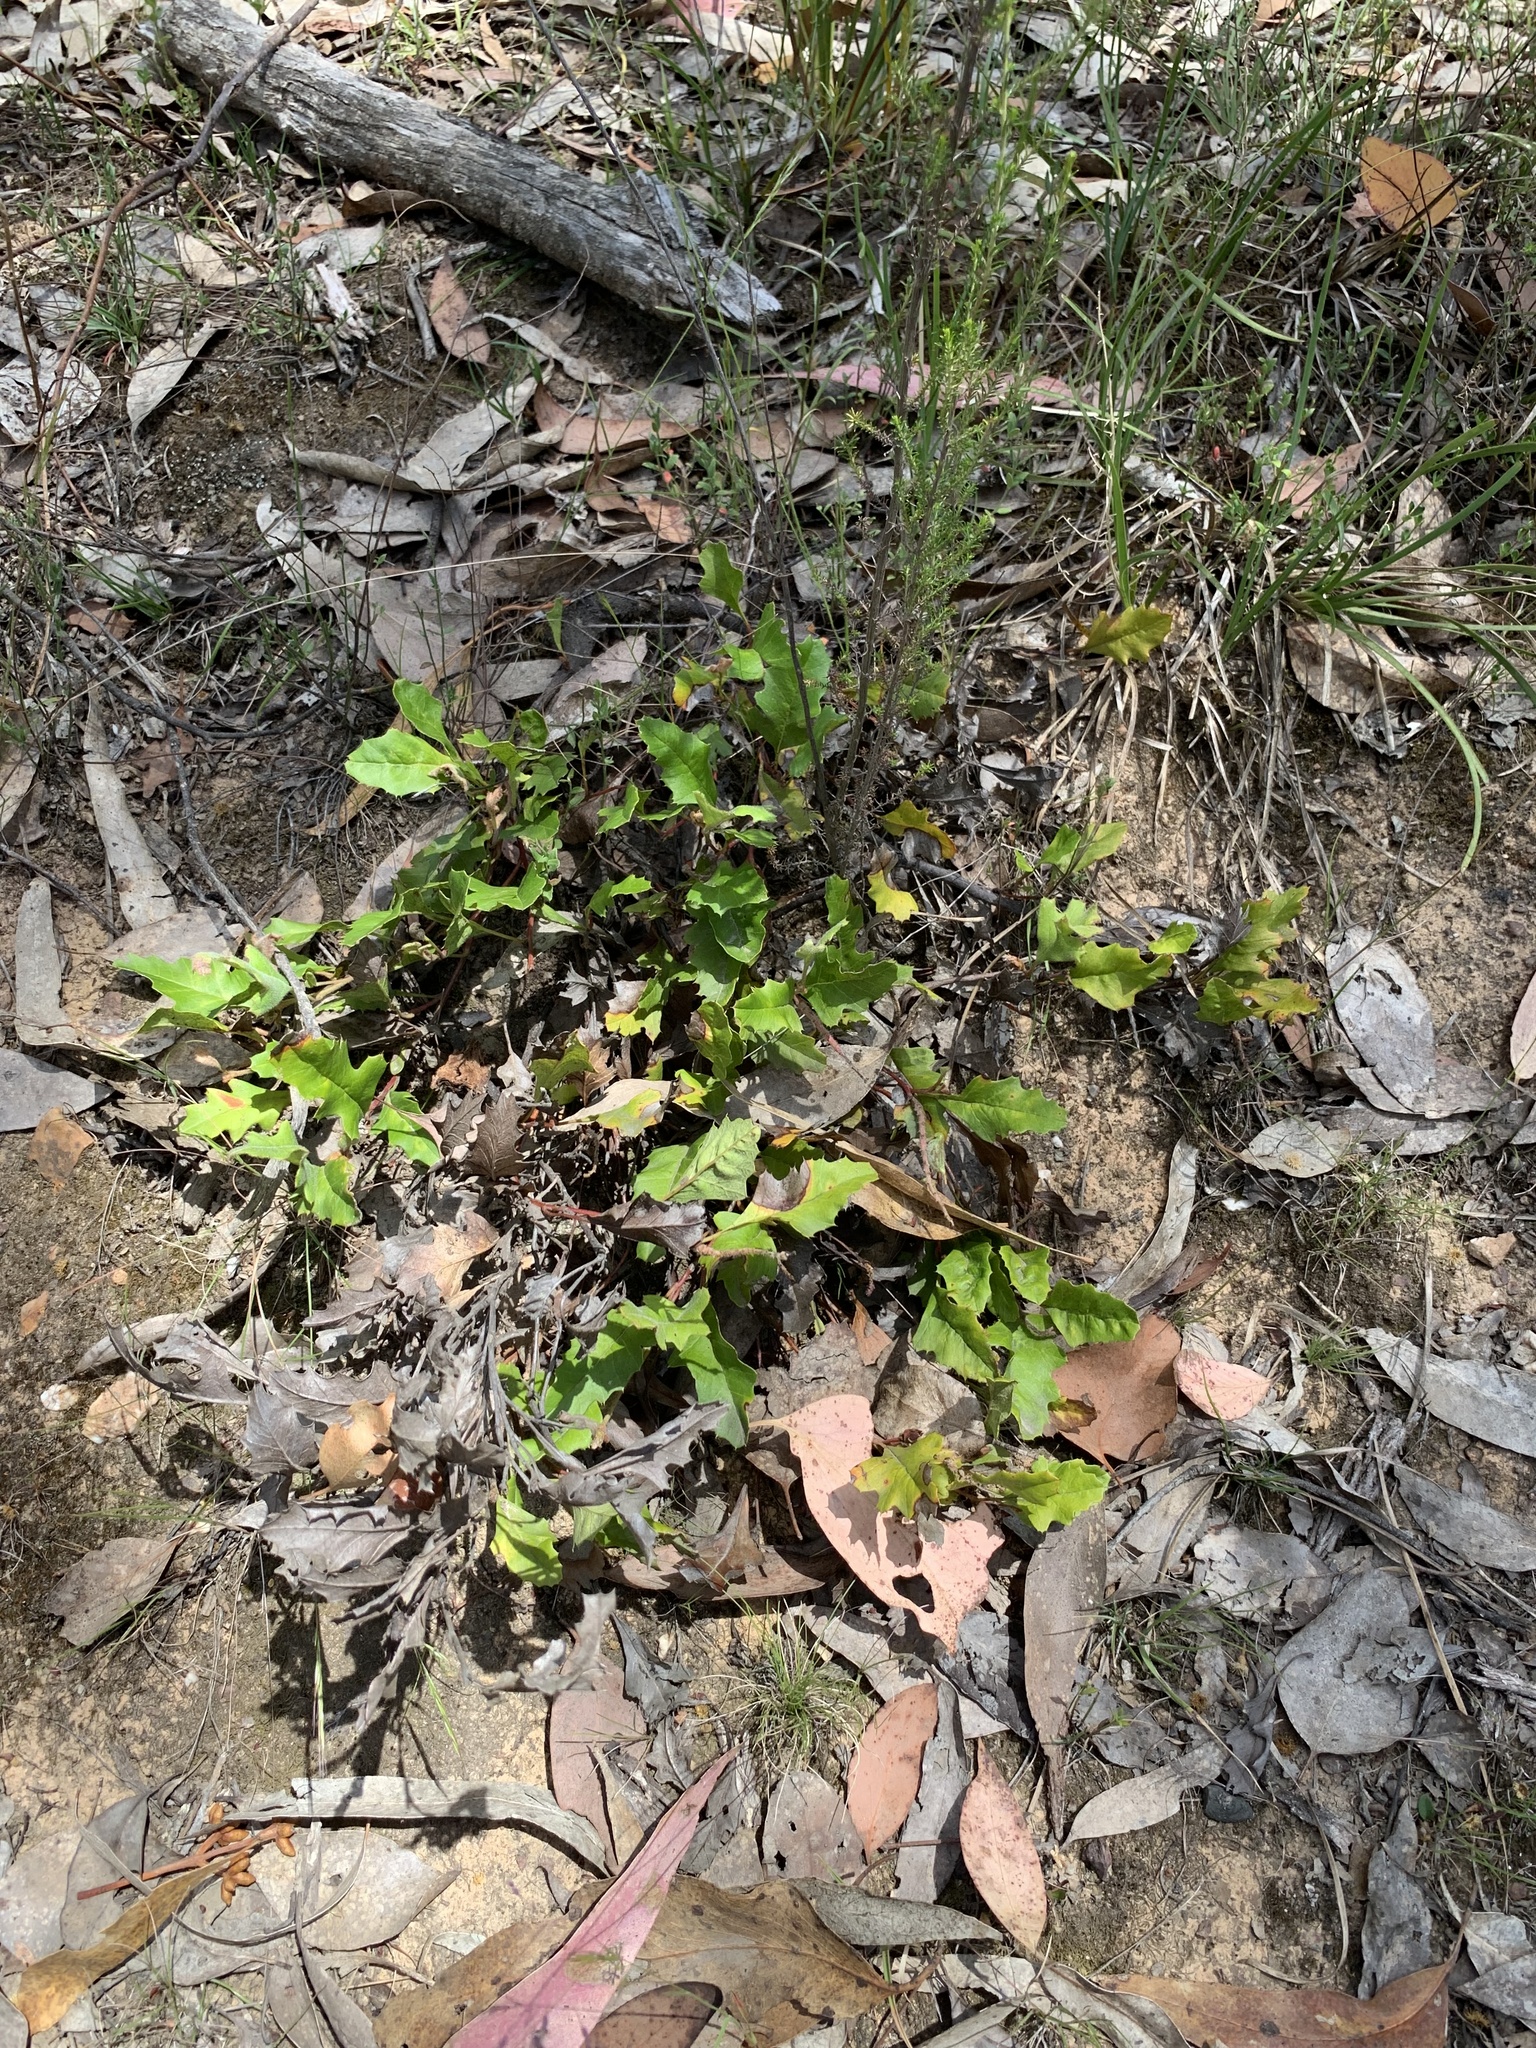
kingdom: Plantae
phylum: Tracheophyta
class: Magnoliopsida
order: Proteales
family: Proteaceae
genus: Grevillea
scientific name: Grevillea obtecta
